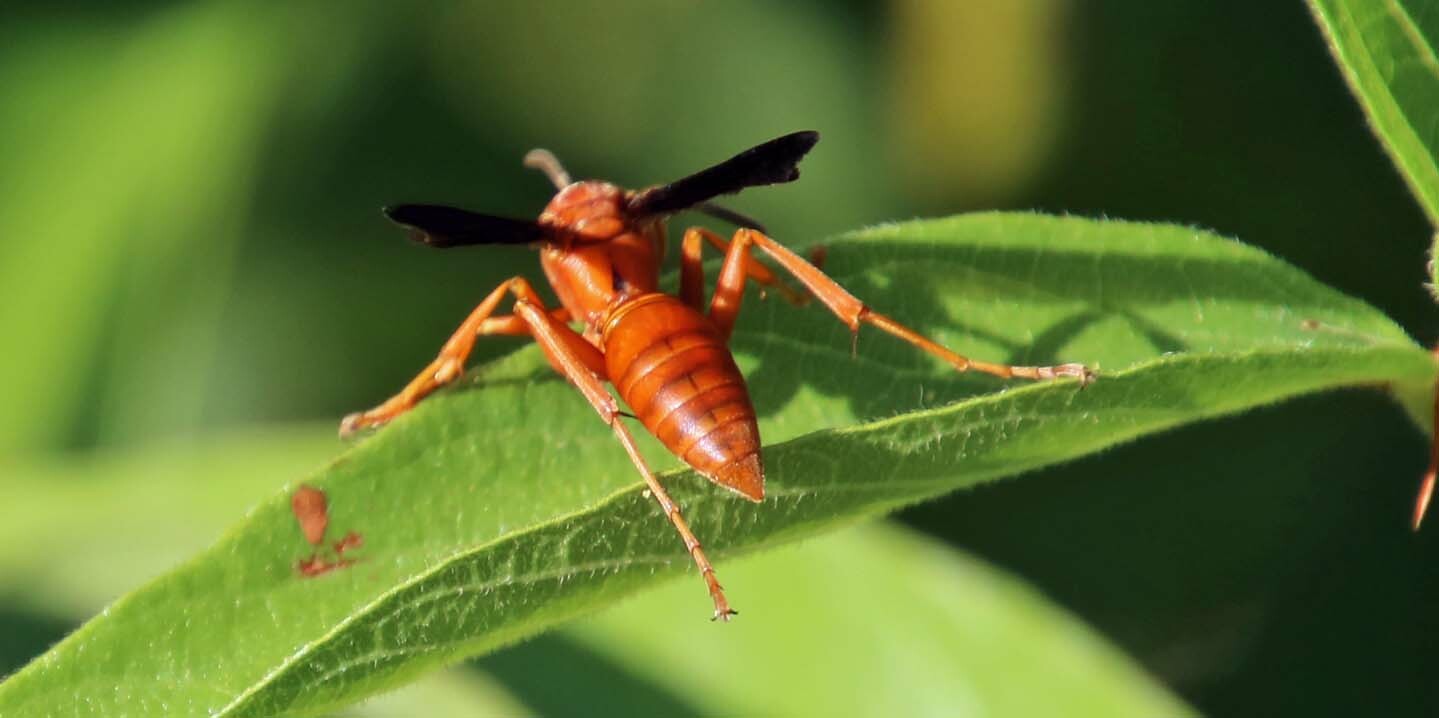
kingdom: Animalia
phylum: Arthropoda
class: Insecta
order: Hymenoptera
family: Eumenidae
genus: Polistes
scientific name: Polistes carolina
